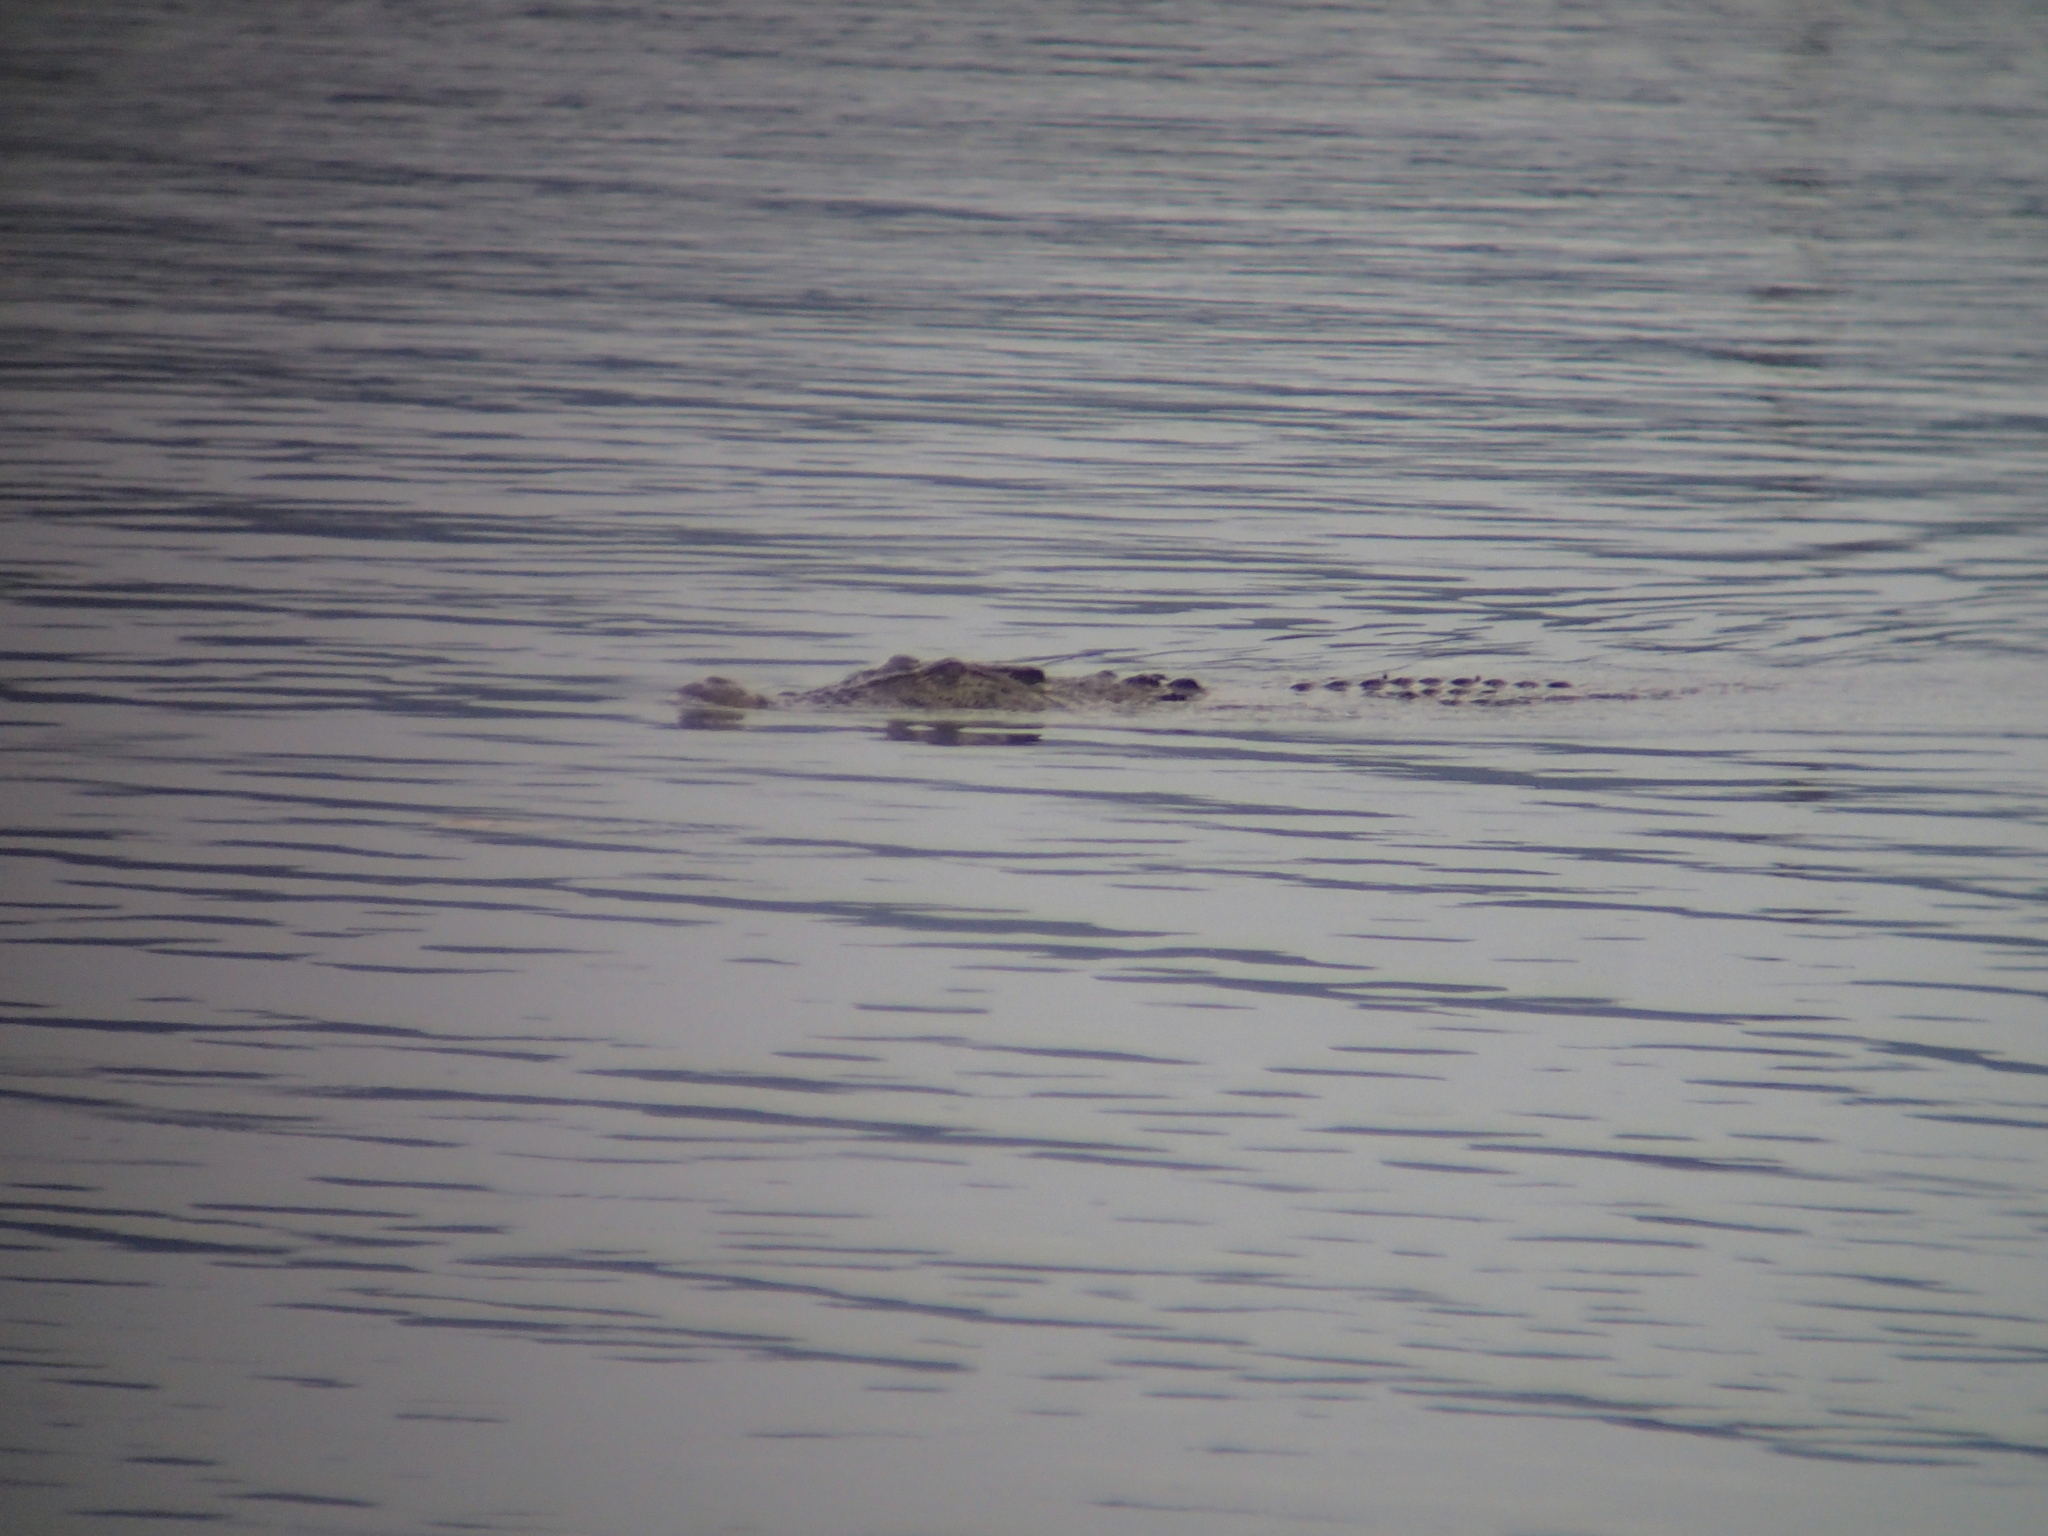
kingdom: Animalia
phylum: Chordata
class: Crocodylia
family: Crocodylidae
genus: Crocodylus
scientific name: Crocodylus porosus
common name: Saltwater crocodile
